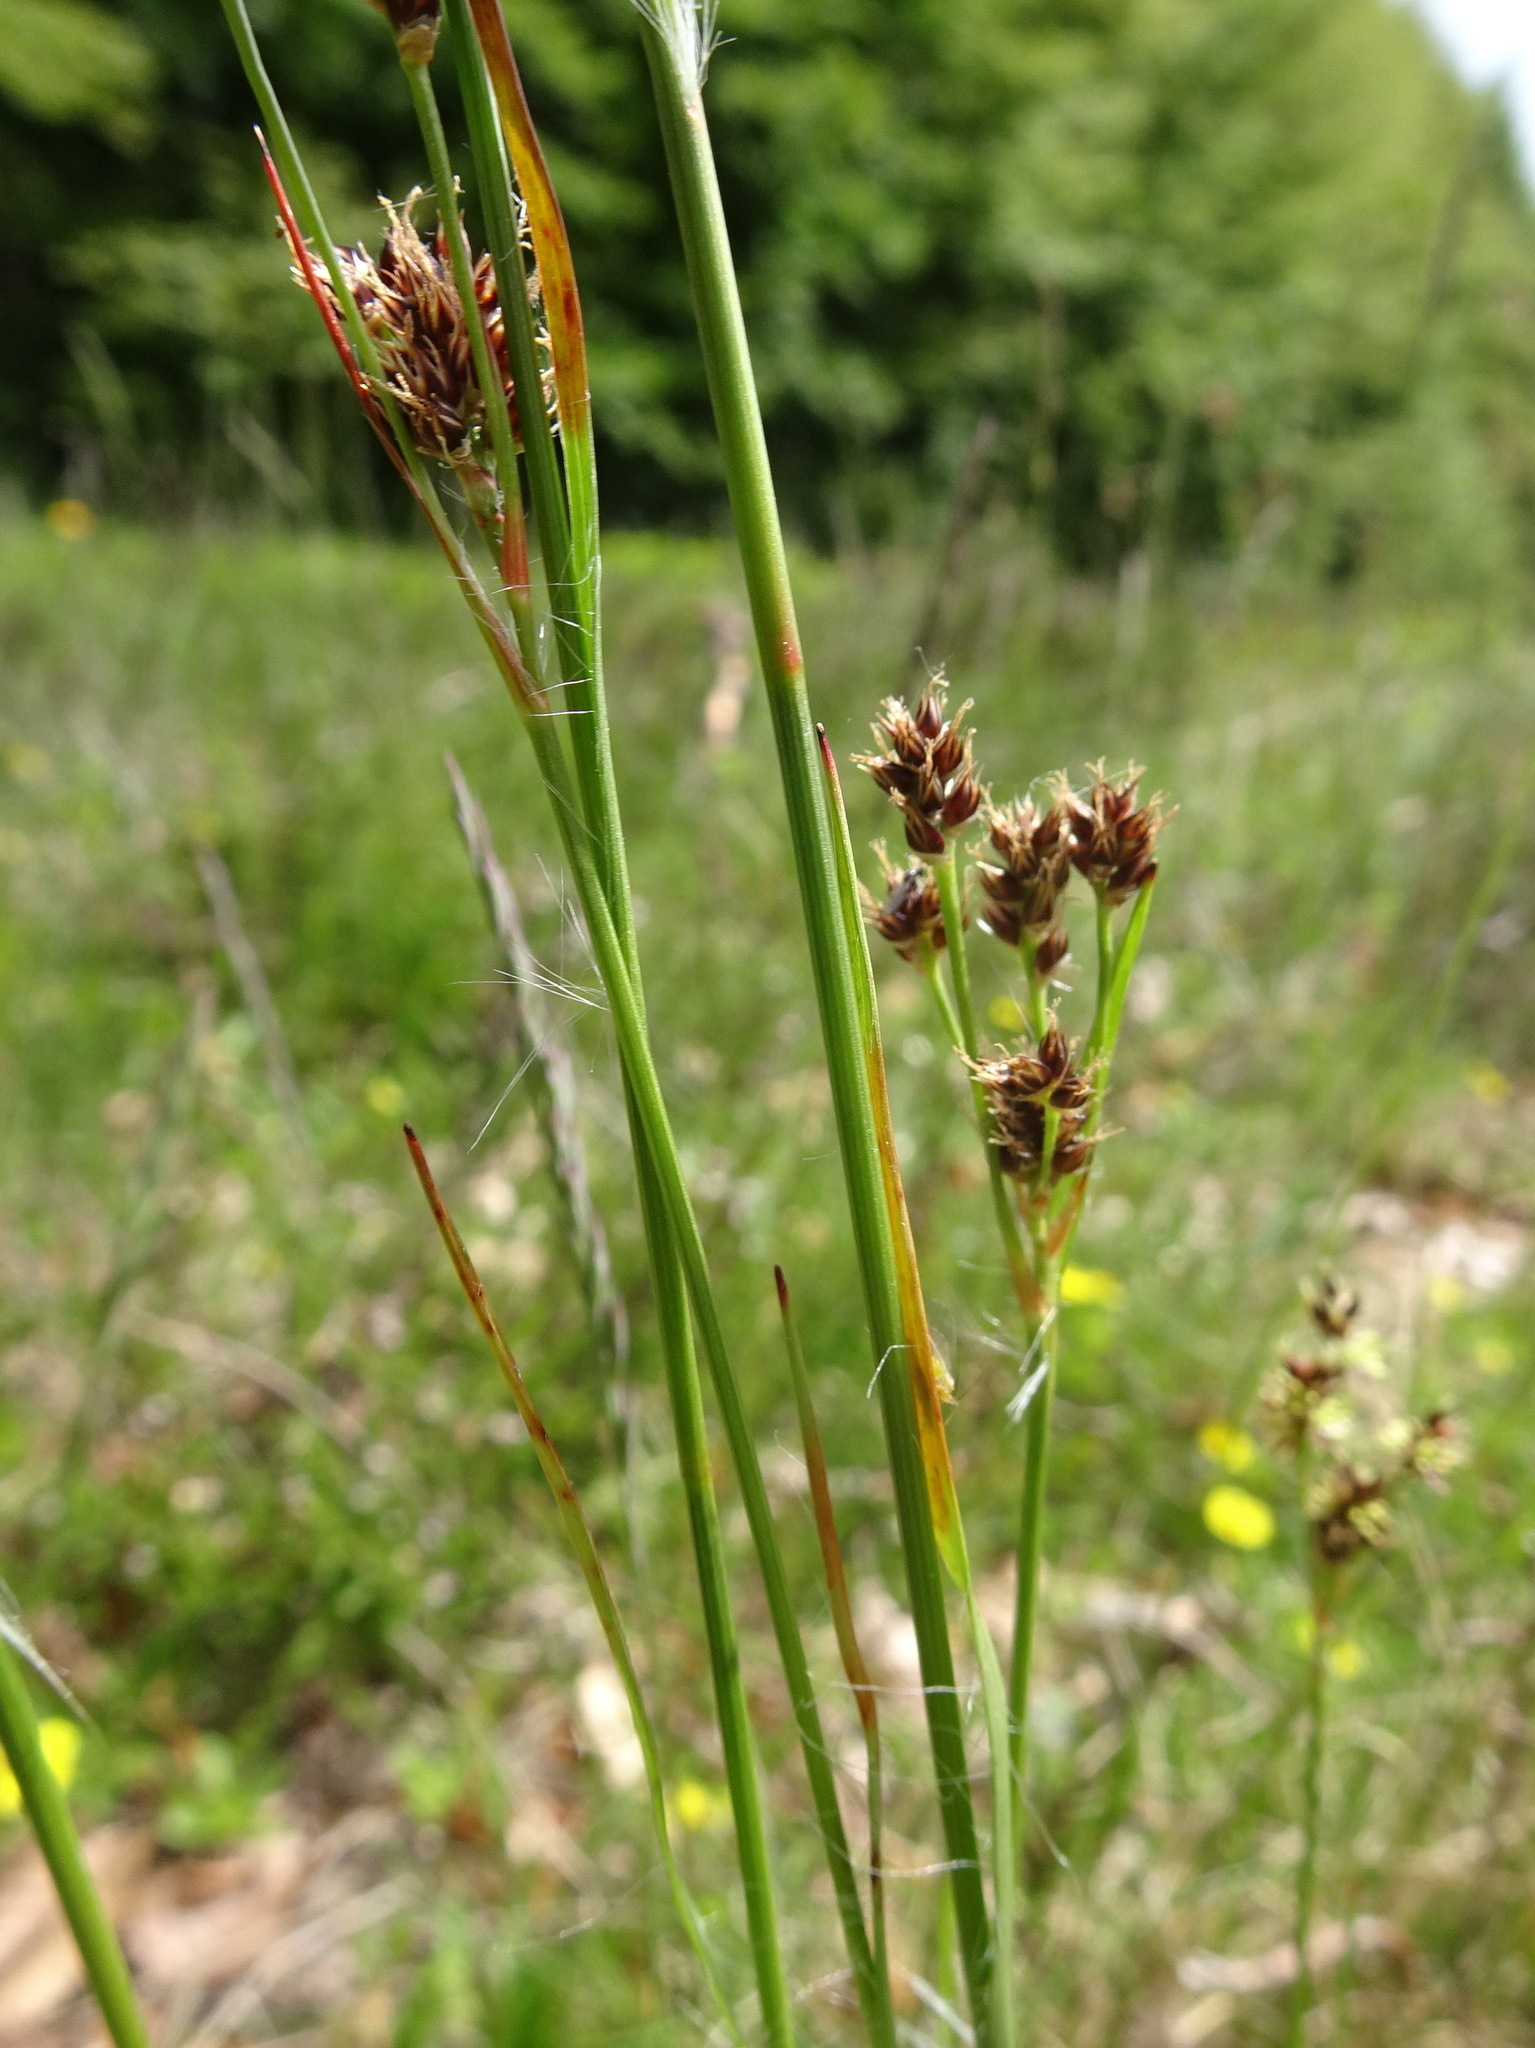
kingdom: Plantae
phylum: Tracheophyta
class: Liliopsida
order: Poales
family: Juncaceae
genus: Luzula
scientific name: Luzula multiflora
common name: Heath wood-rush
